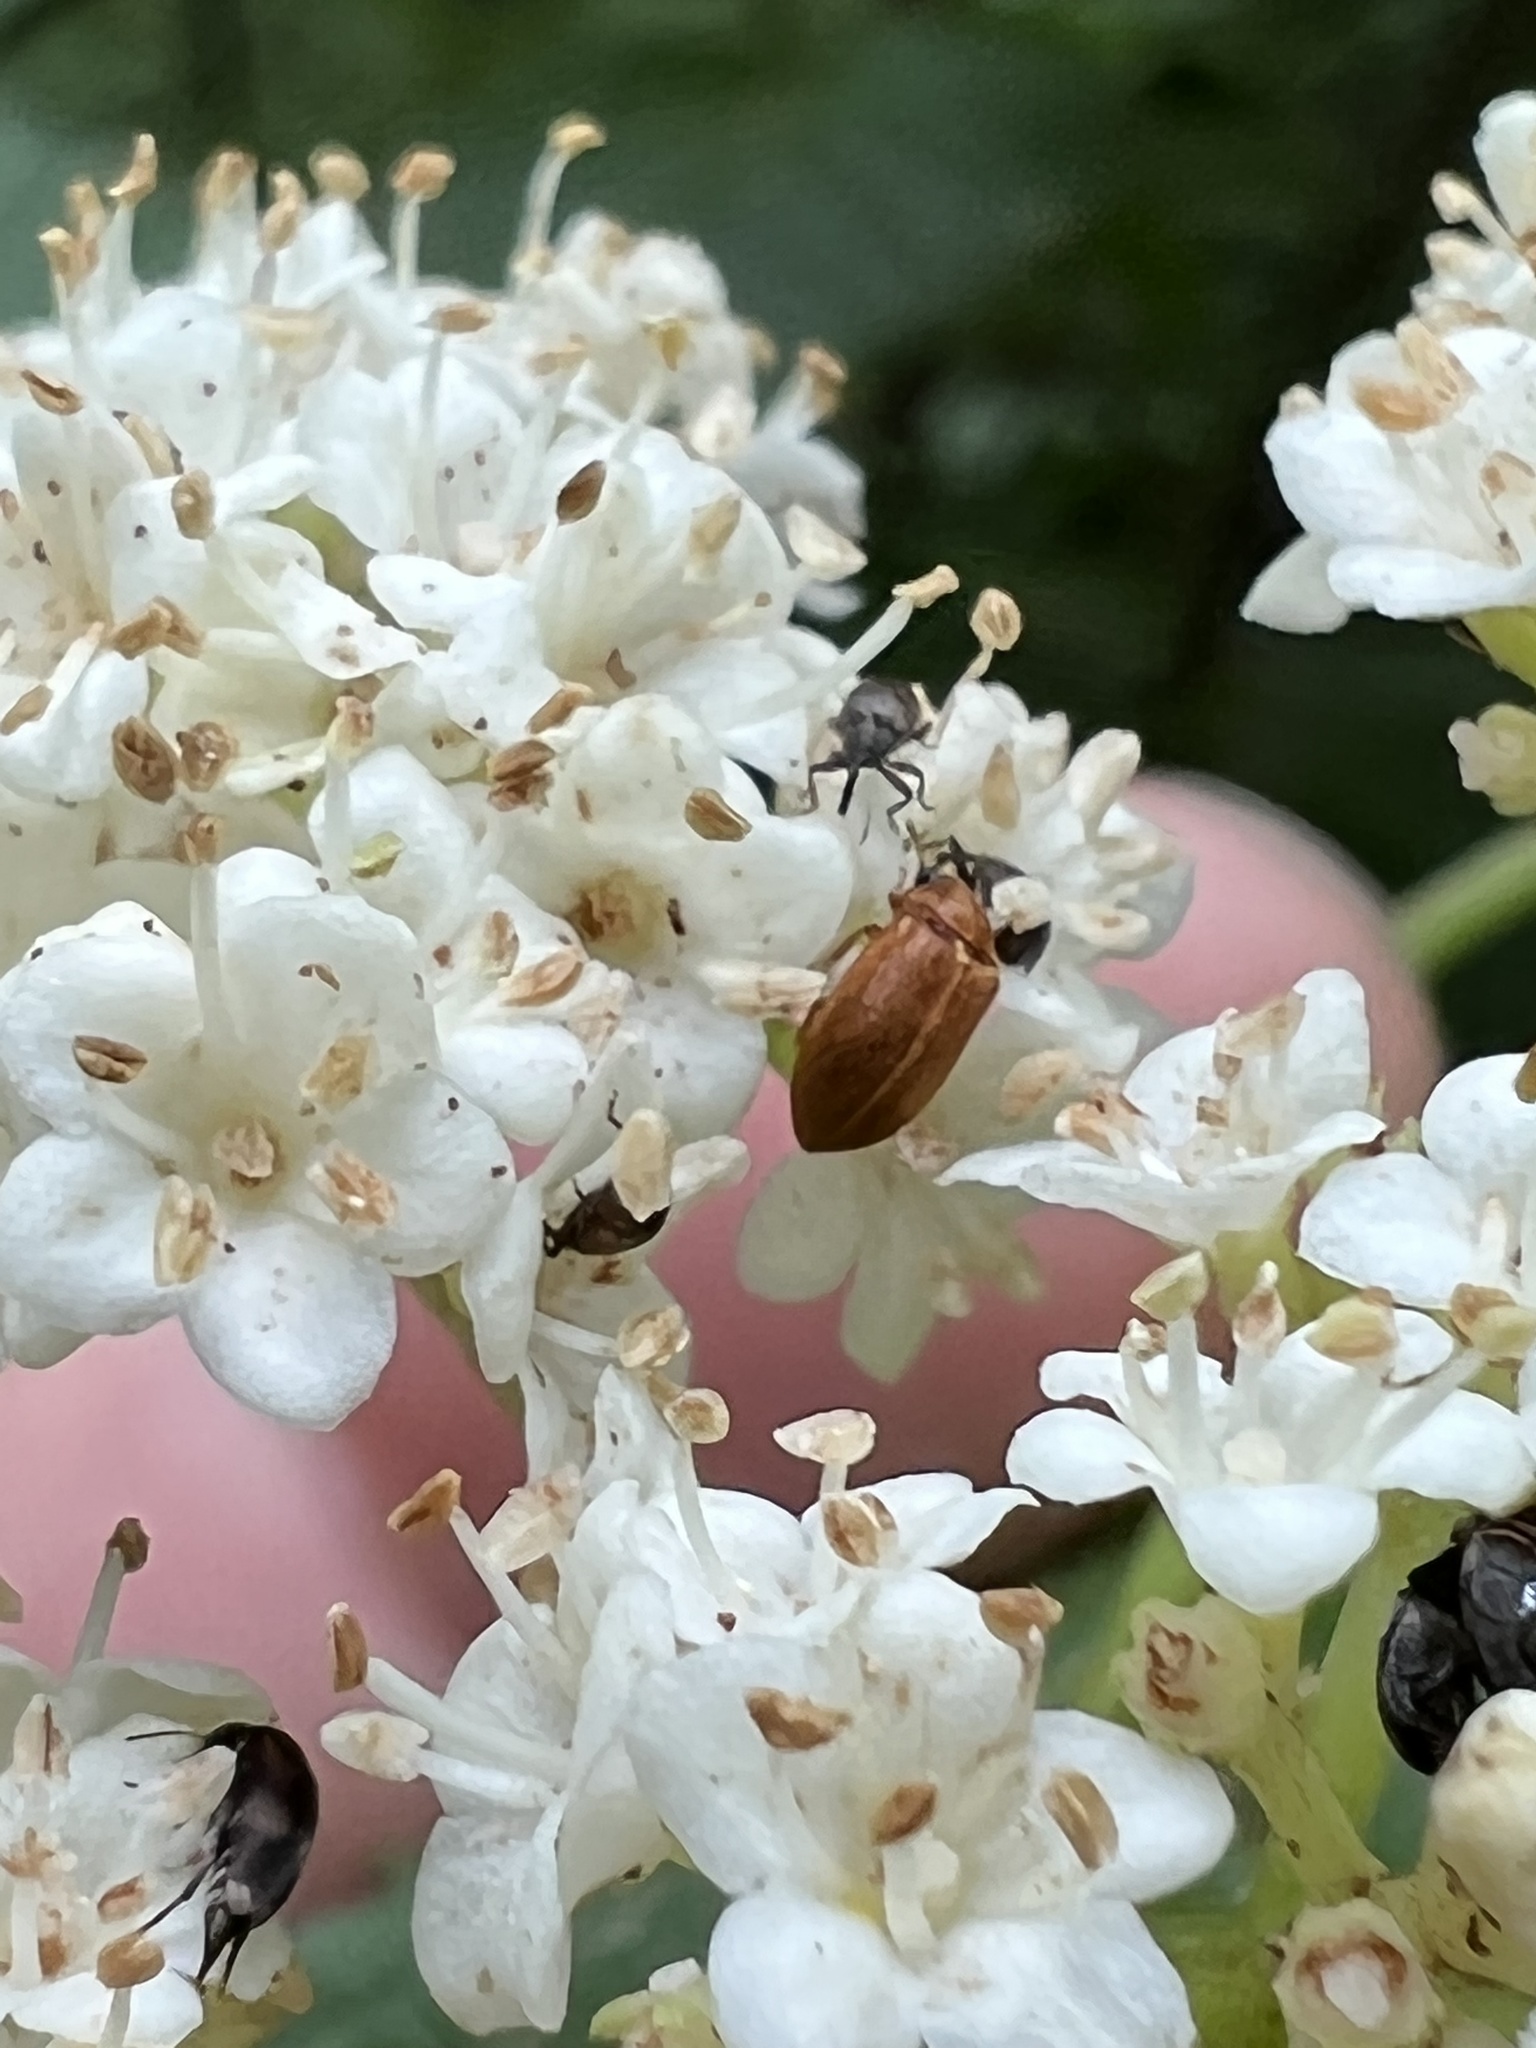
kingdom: Animalia
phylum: Arthropoda
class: Insecta
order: Coleoptera
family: Byturidae
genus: Byturus
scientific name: Byturus unicolor
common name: Raspberry fruitworm beetle
